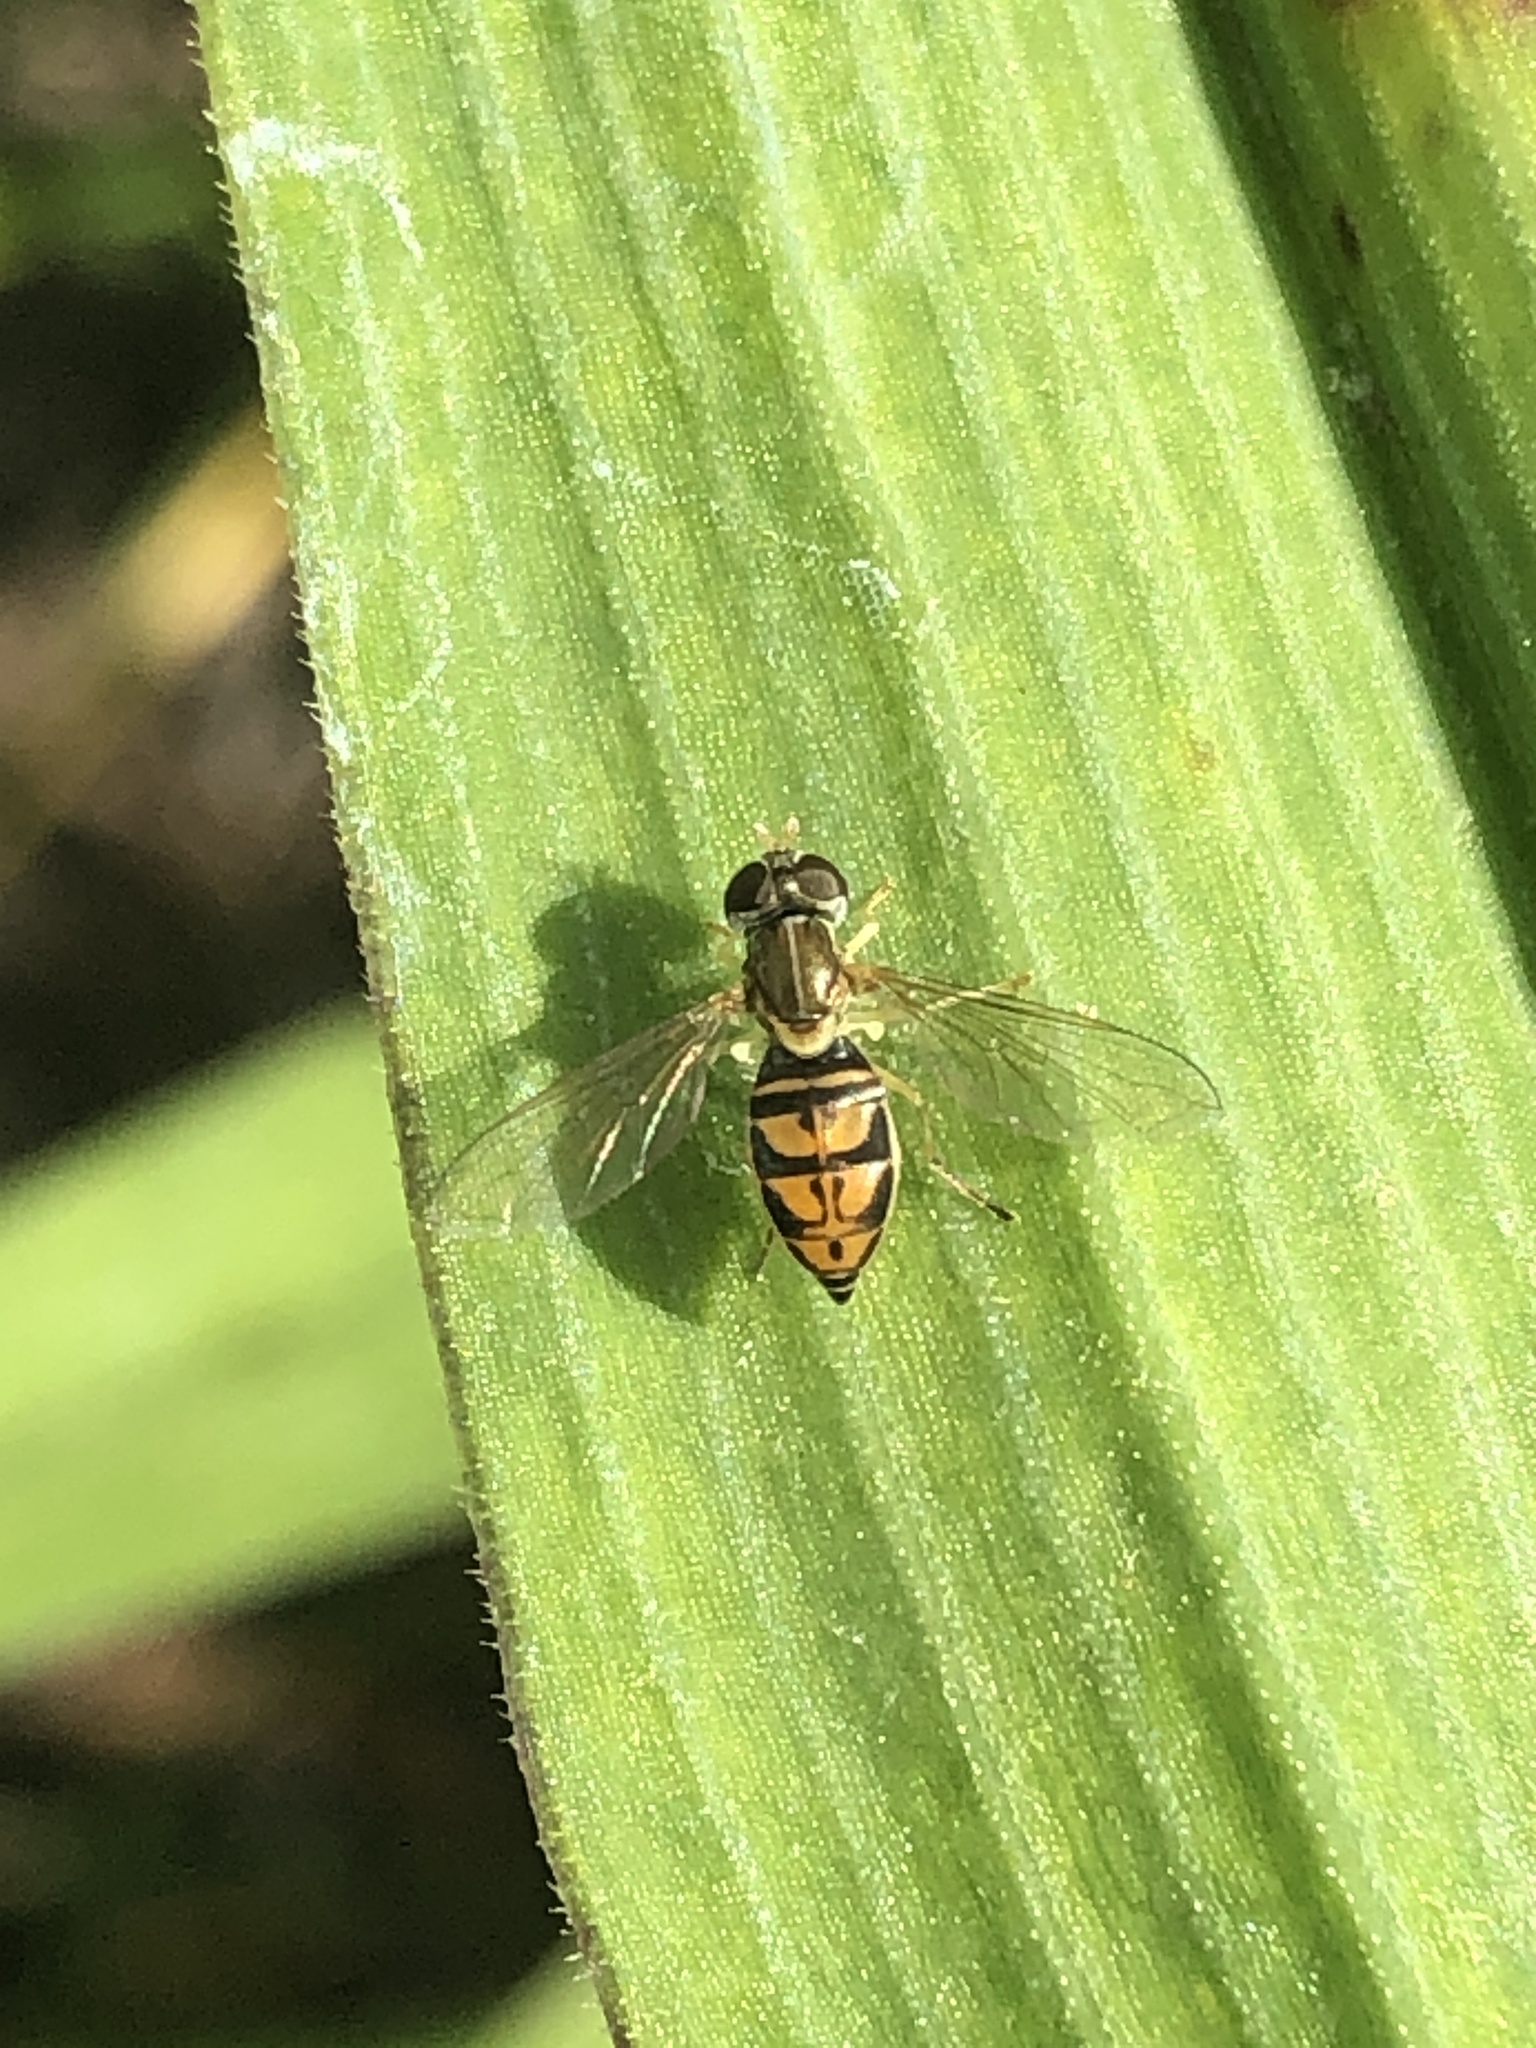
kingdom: Animalia
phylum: Arthropoda
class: Insecta
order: Diptera
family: Syrphidae
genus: Toxomerus
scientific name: Toxomerus marginatus
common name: Syrphid fly
